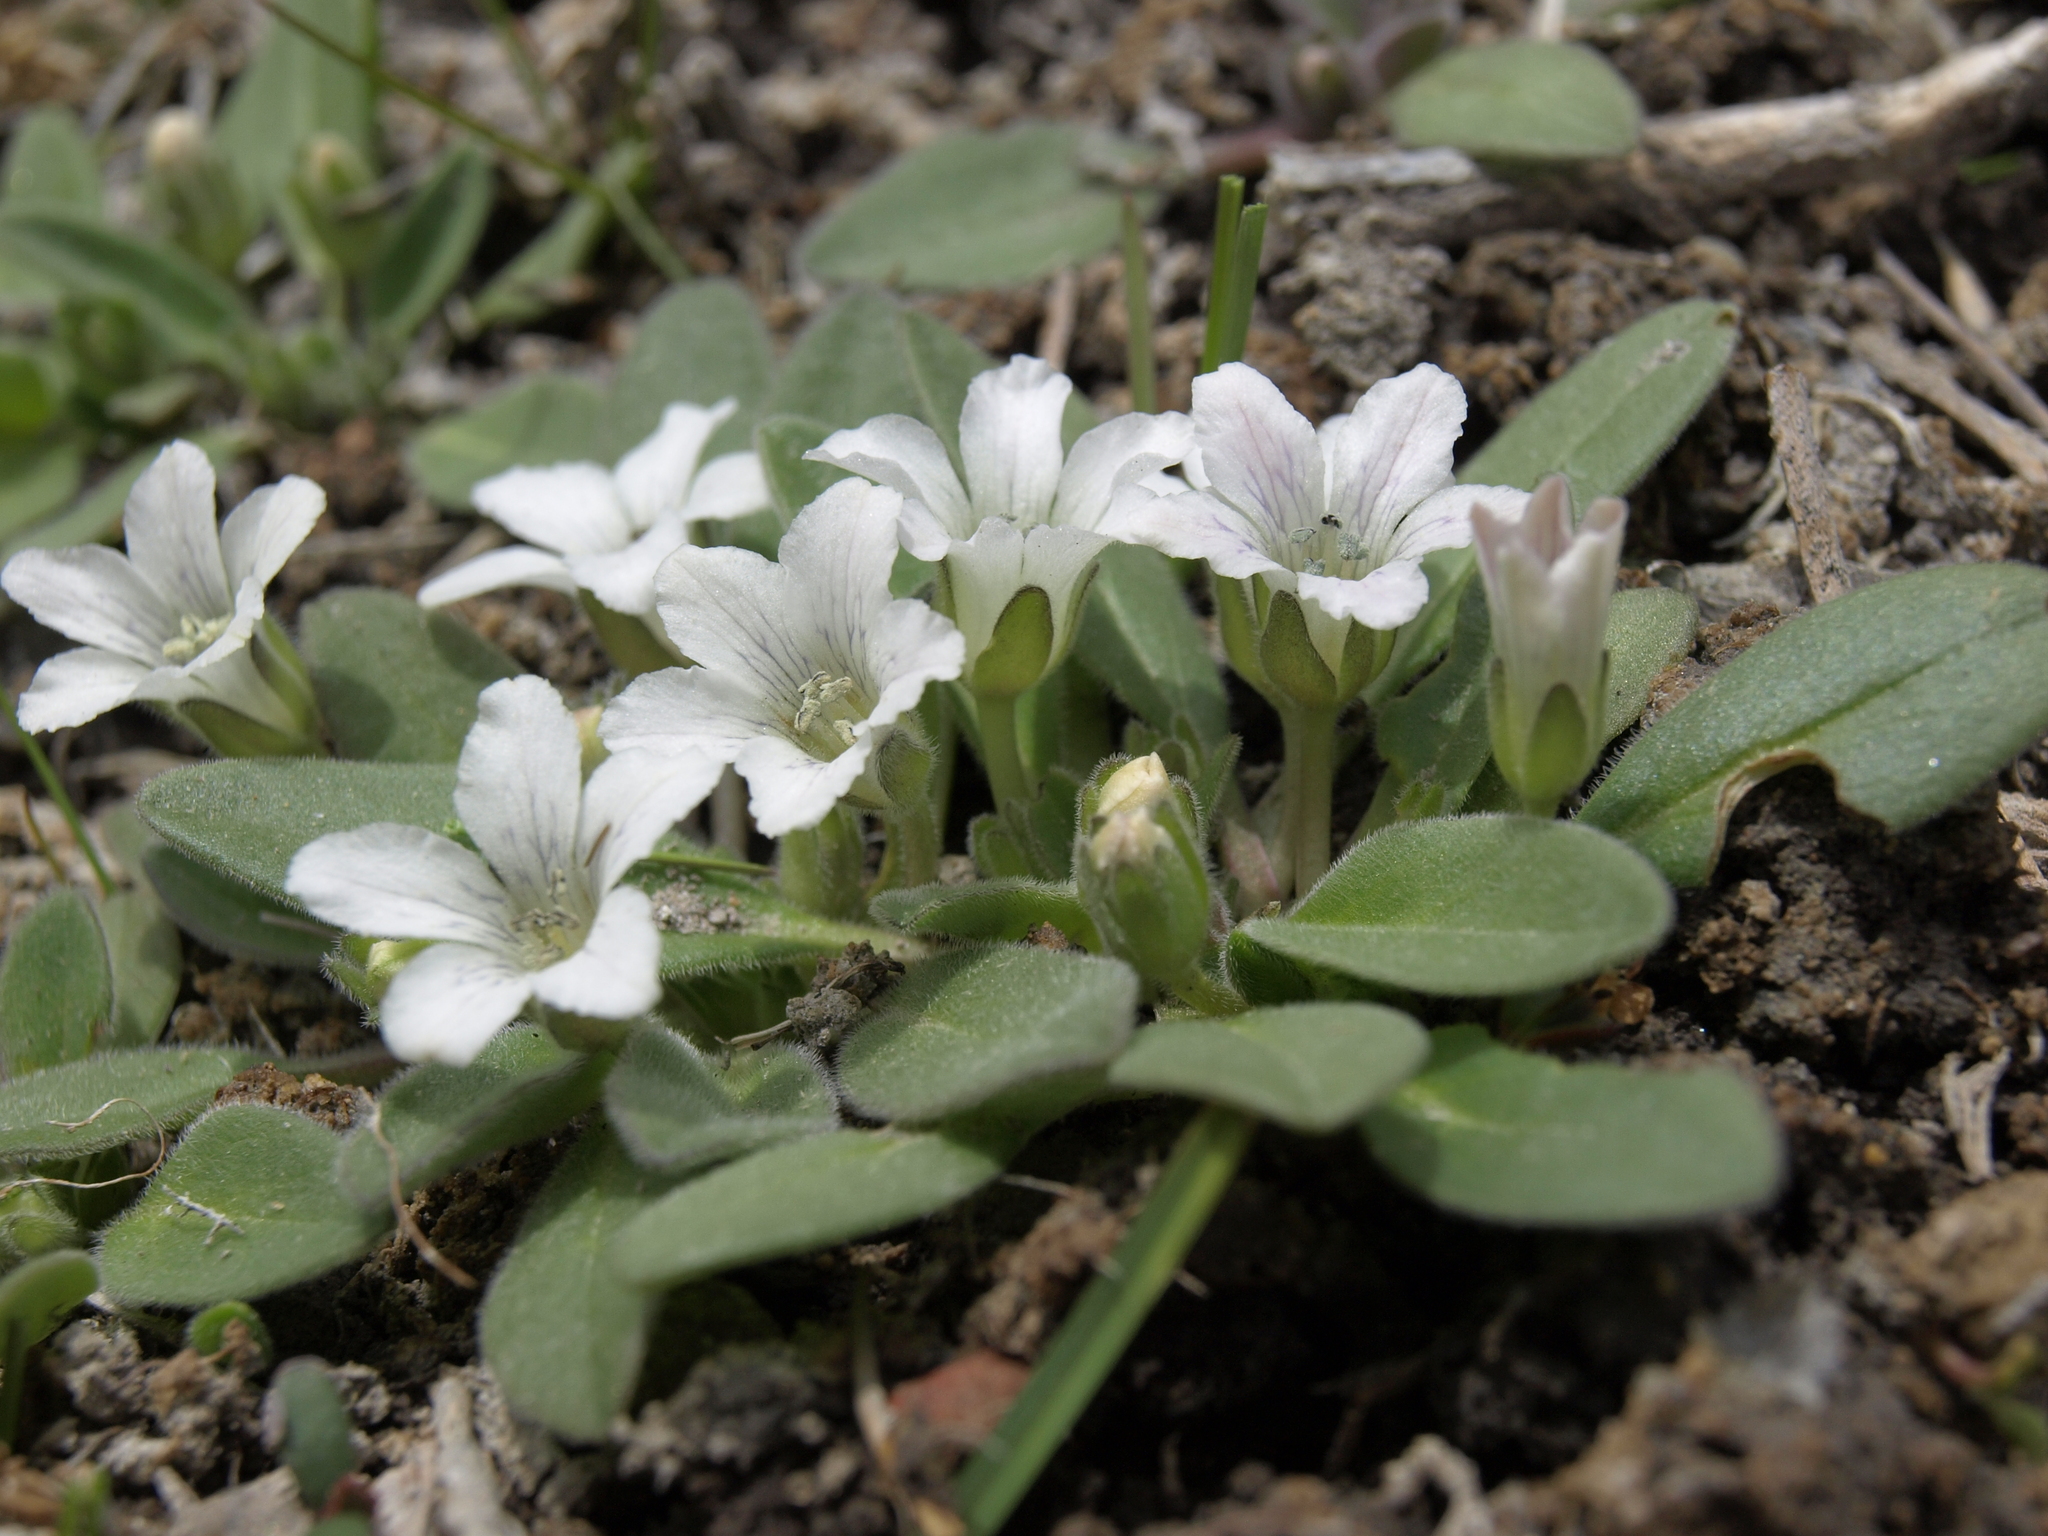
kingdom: Plantae
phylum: Tracheophyta
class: Magnoliopsida
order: Boraginales
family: Hydrophyllaceae
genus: Hesperochiron
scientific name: Hesperochiron californicus
